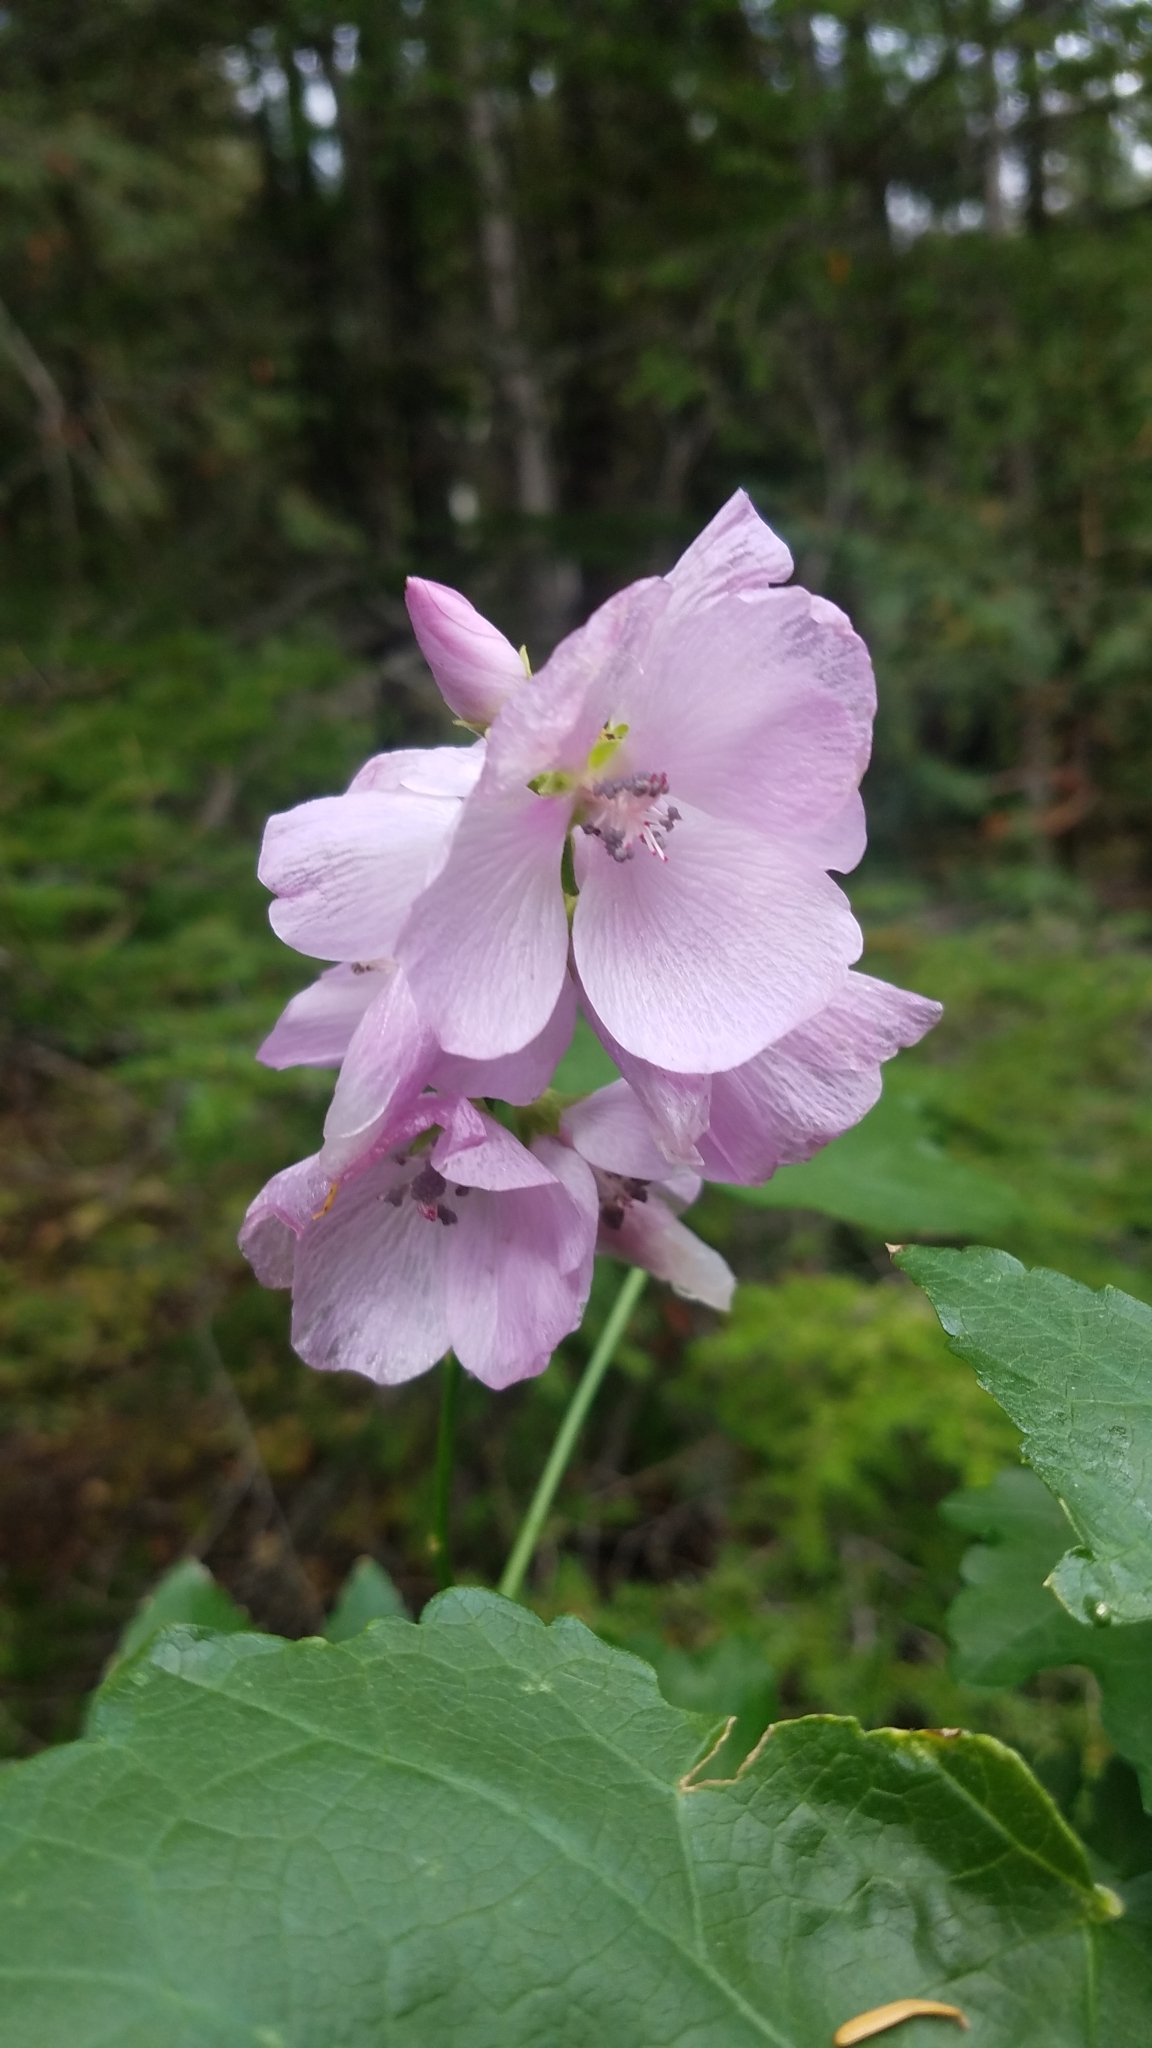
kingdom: Plantae
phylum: Tracheophyta
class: Magnoliopsida
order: Malvales
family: Malvaceae
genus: Iliamna
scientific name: Iliamna rivularis
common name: Wild hollyhock
